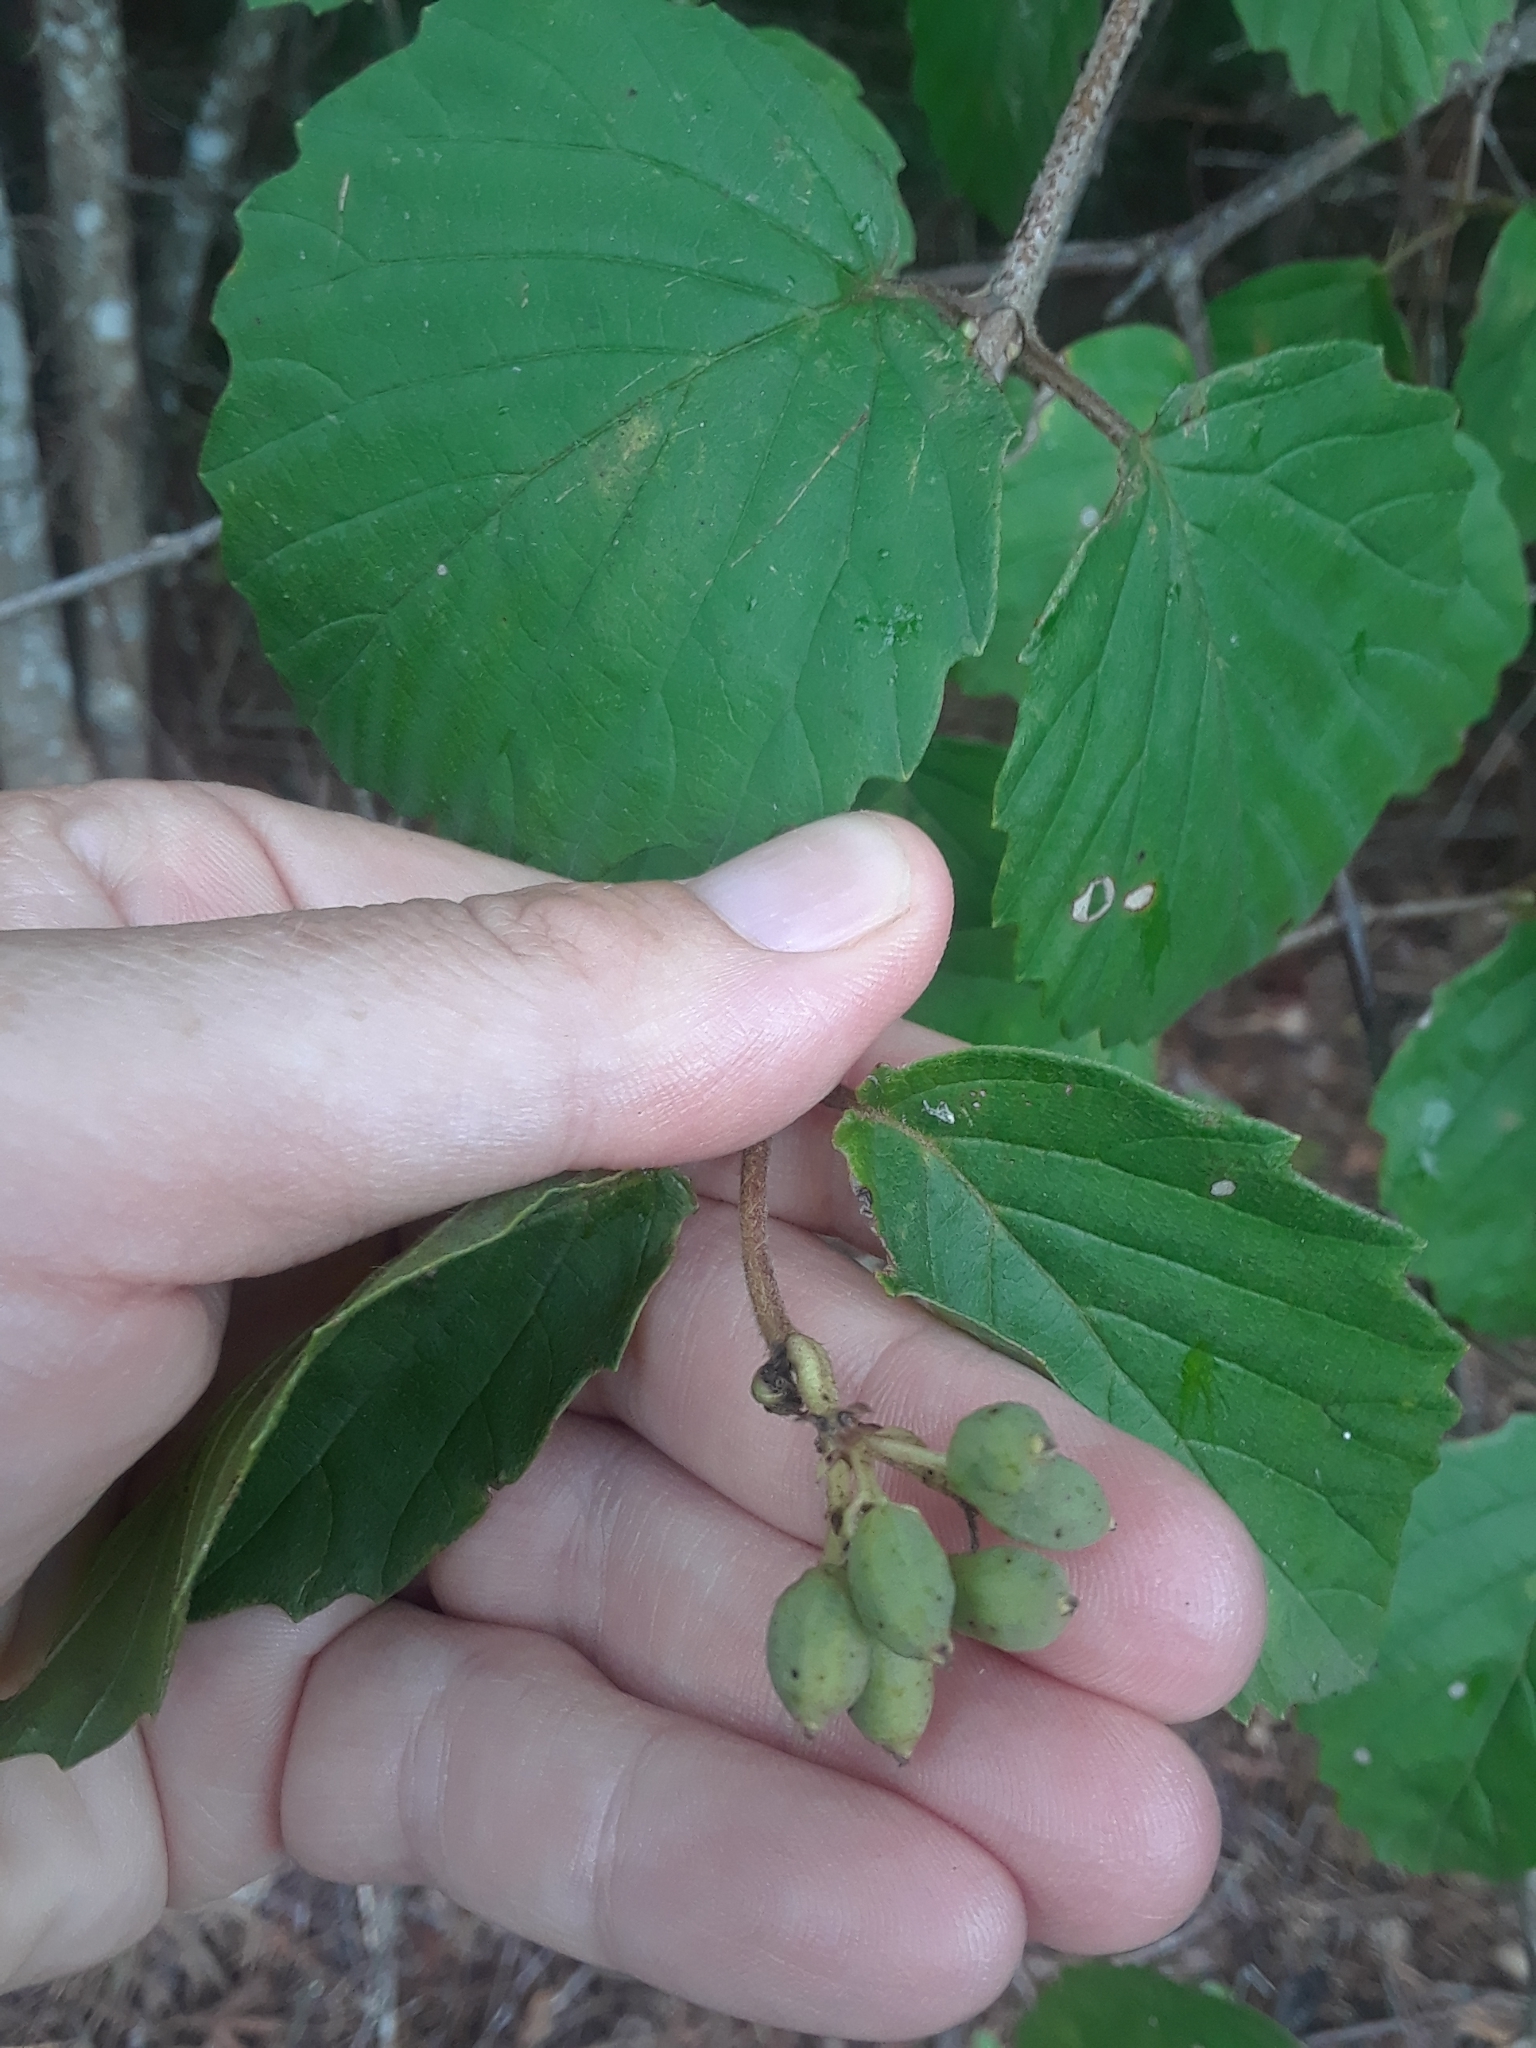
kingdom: Plantae
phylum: Tracheophyta
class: Magnoliopsida
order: Dipsacales
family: Viburnaceae
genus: Viburnum
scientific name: Viburnum scabrellum
